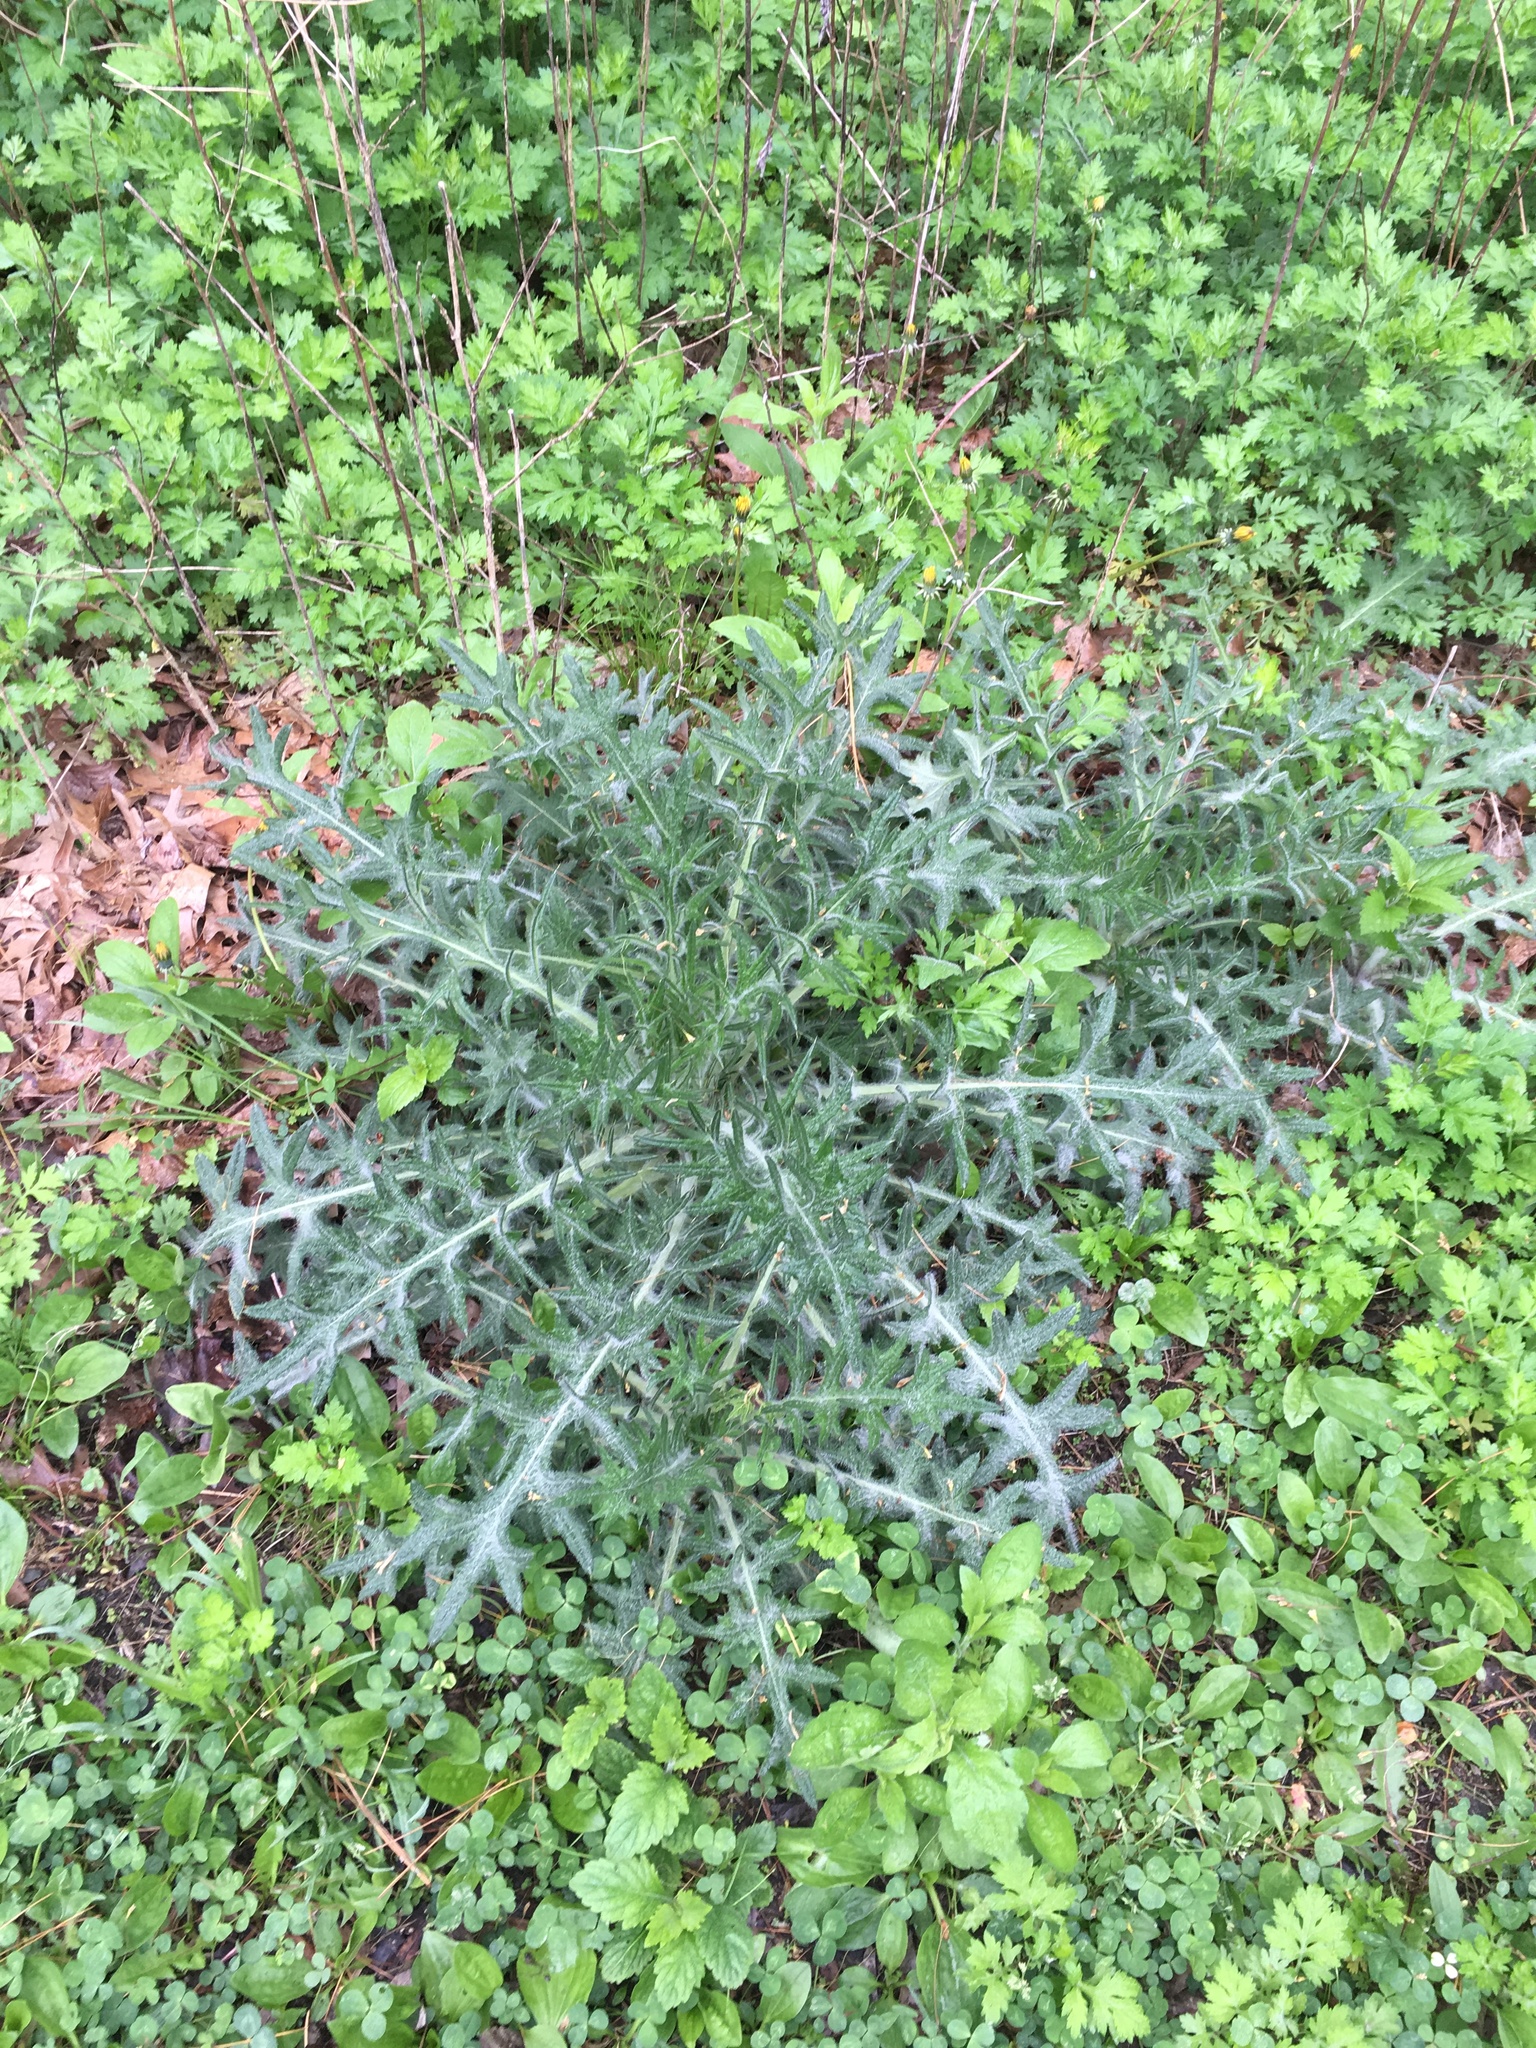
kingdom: Plantae
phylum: Tracheophyta
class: Magnoliopsida
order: Asterales
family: Asteraceae
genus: Cirsium
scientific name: Cirsium vulgare
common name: Bull thistle
